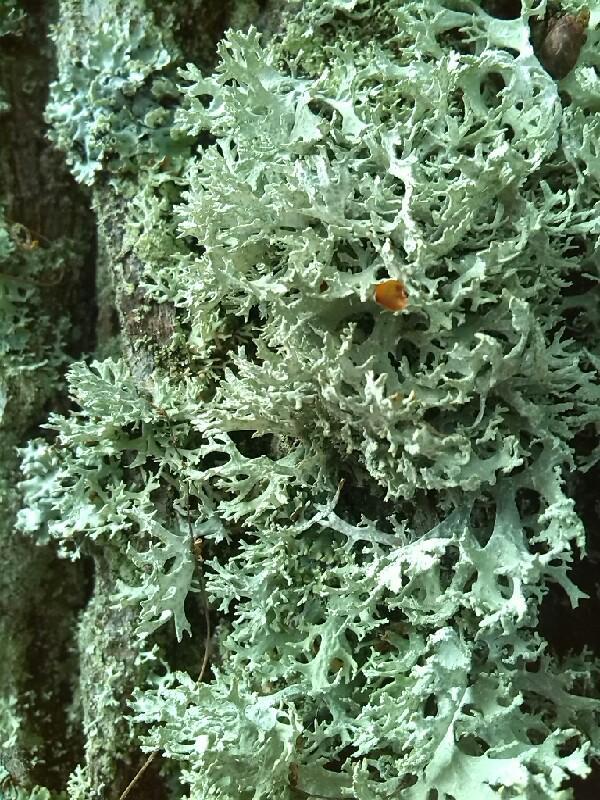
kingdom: Fungi
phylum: Ascomycota
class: Lecanoromycetes
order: Lecanorales
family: Parmeliaceae
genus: Evernia
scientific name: Evernia prunastri
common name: Oak moss
